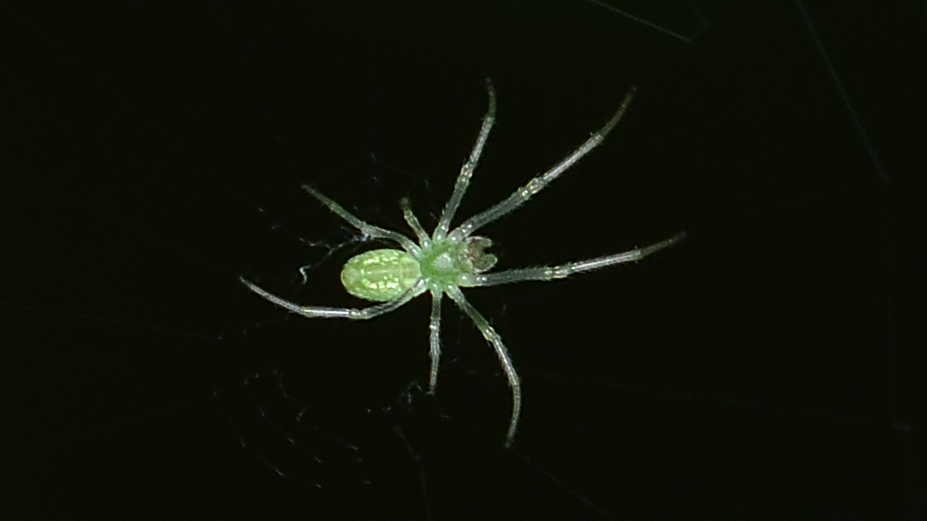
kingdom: Animalia
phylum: Arthropoda
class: Arachnida
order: Araneae
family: Tetragnathidae
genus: Tetragnatha
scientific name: Tetragnatha viridis
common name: Green long-jawed spider
